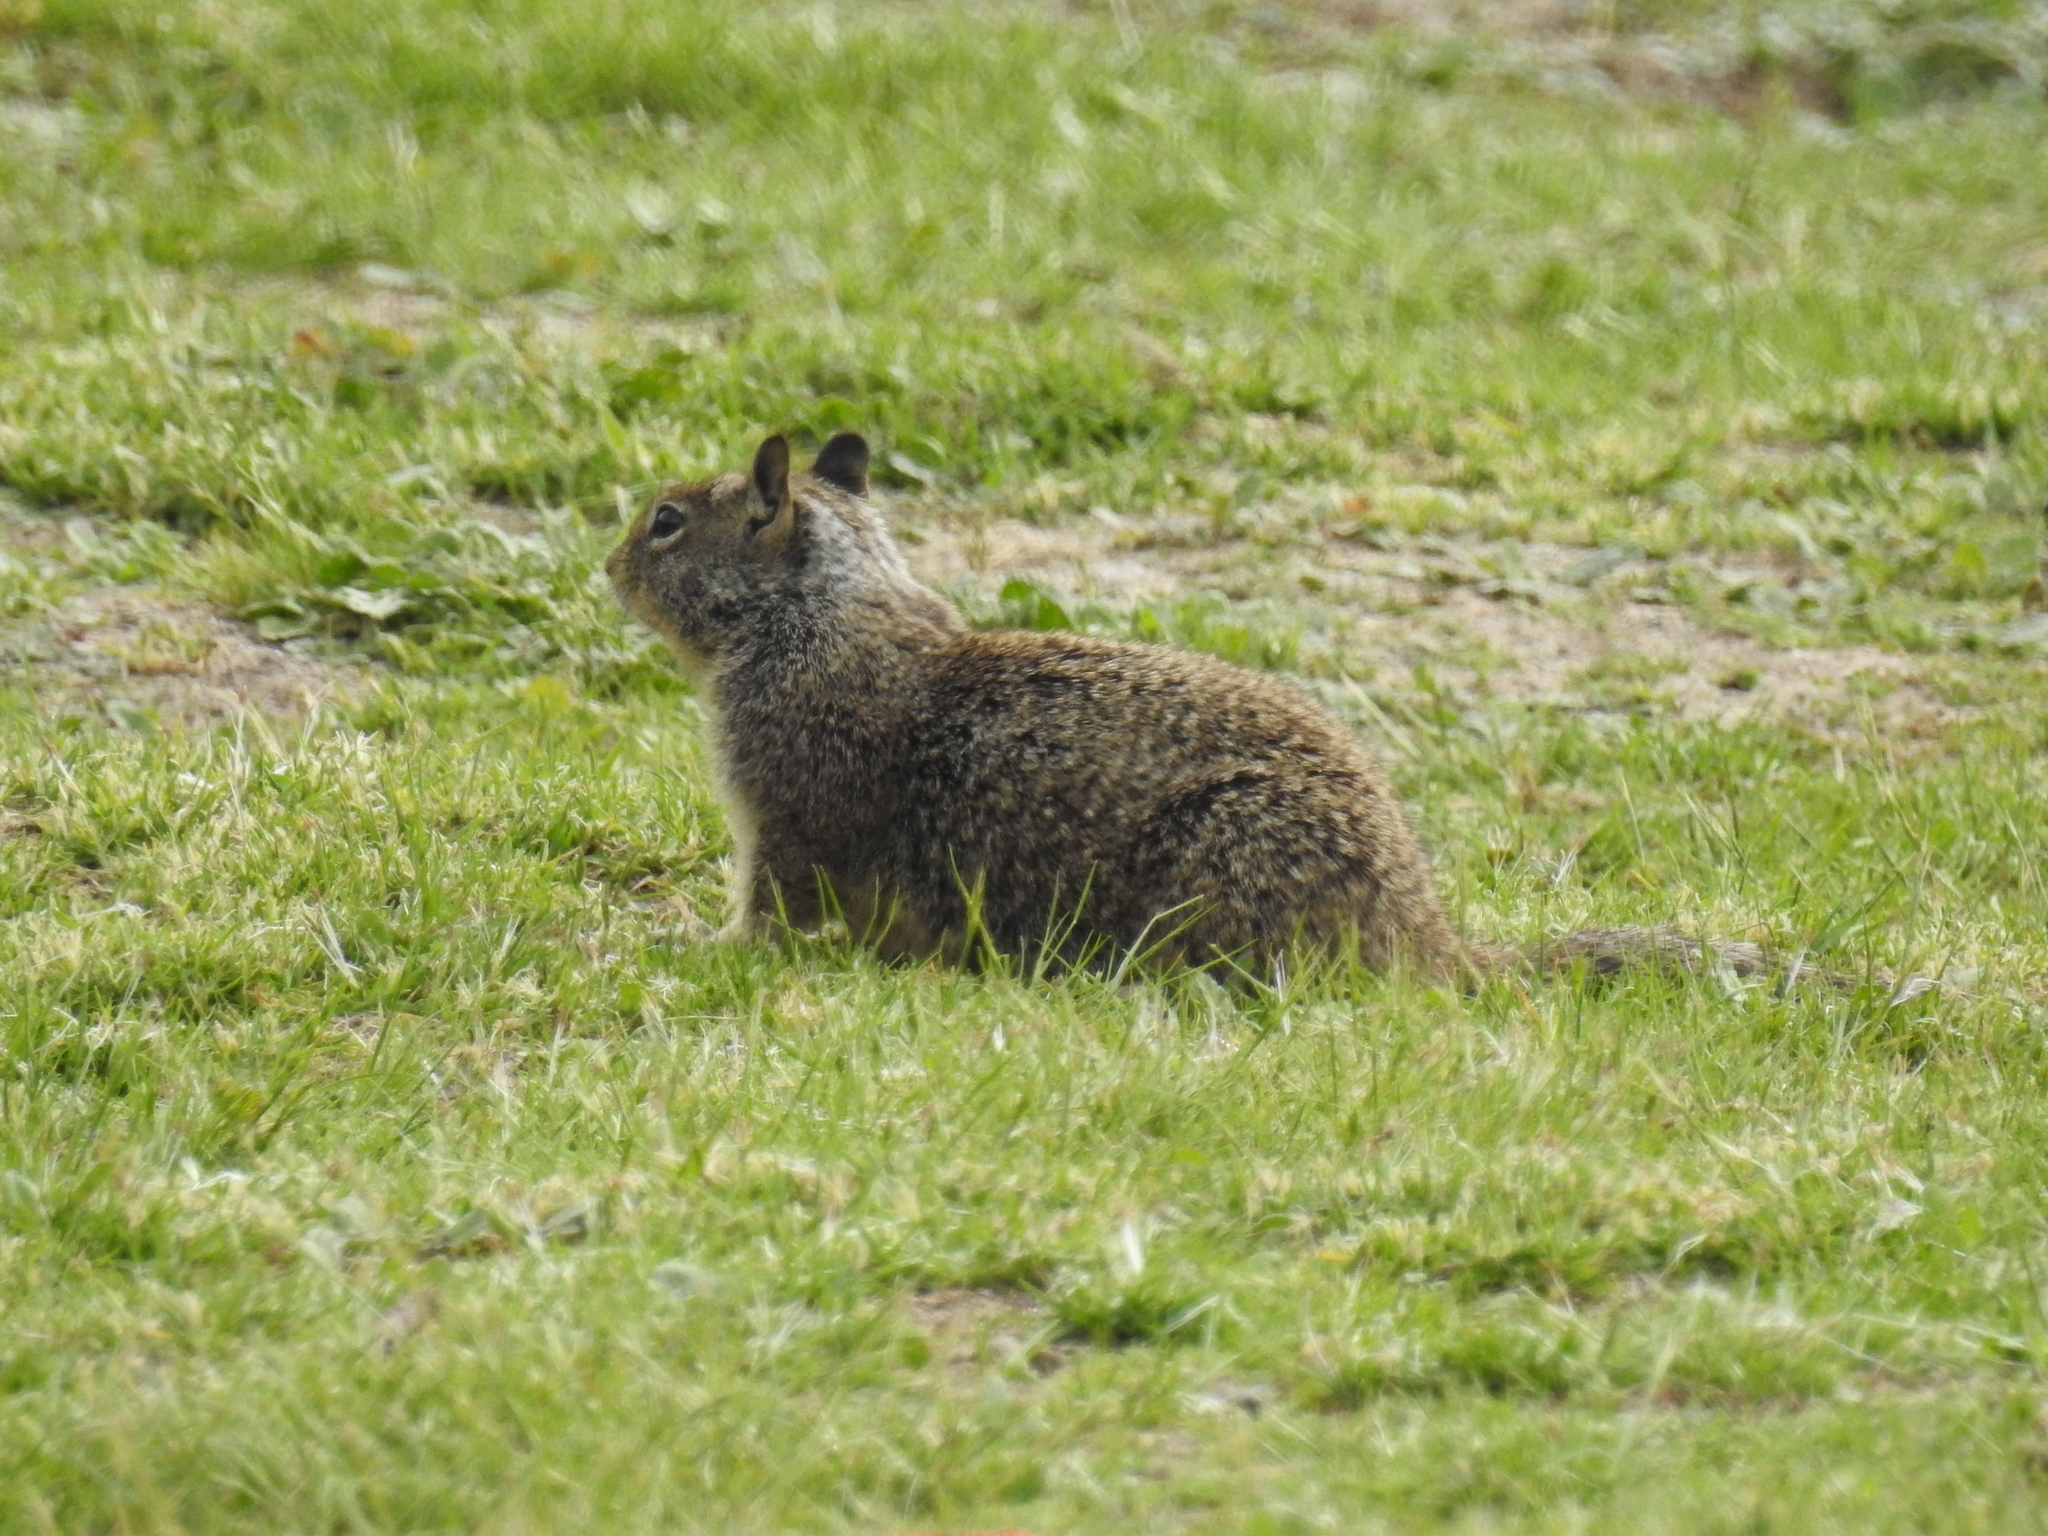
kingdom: Animalia
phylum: Chordata
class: Mammalia
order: Rodentia
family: Sciuridae
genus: Otospermophilus
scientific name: Otospermophilus beecheyi
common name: California ground squirrel
